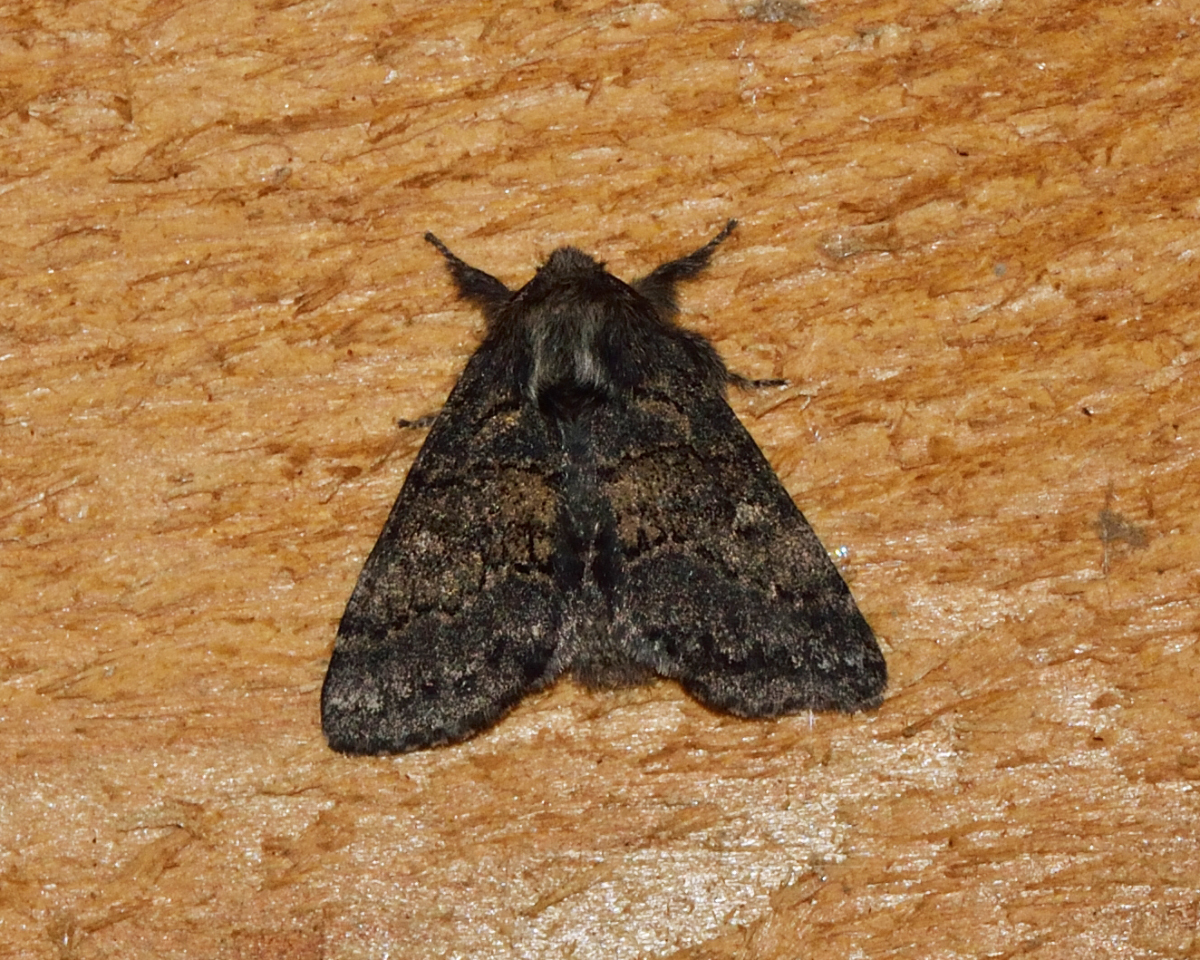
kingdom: Animalia
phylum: Arthropoda
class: Insecta
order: Lepidoptera
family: Notodontidae
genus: Gluphisia
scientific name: Gluphisia crenata
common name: Dusky marbled brown
